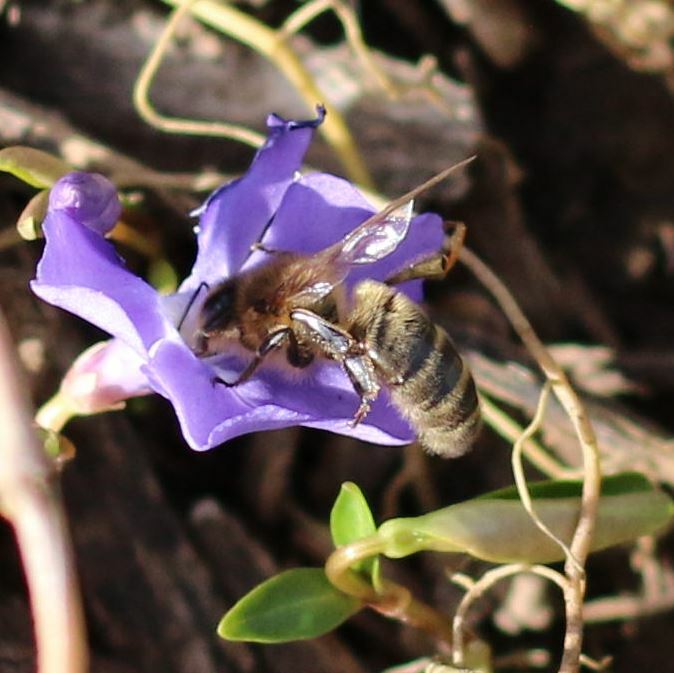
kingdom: Animalia
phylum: Arthropoda
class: Insecta
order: Hymenoptera
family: Apidae
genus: Apis
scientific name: Apis mellifera
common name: Honey bee
